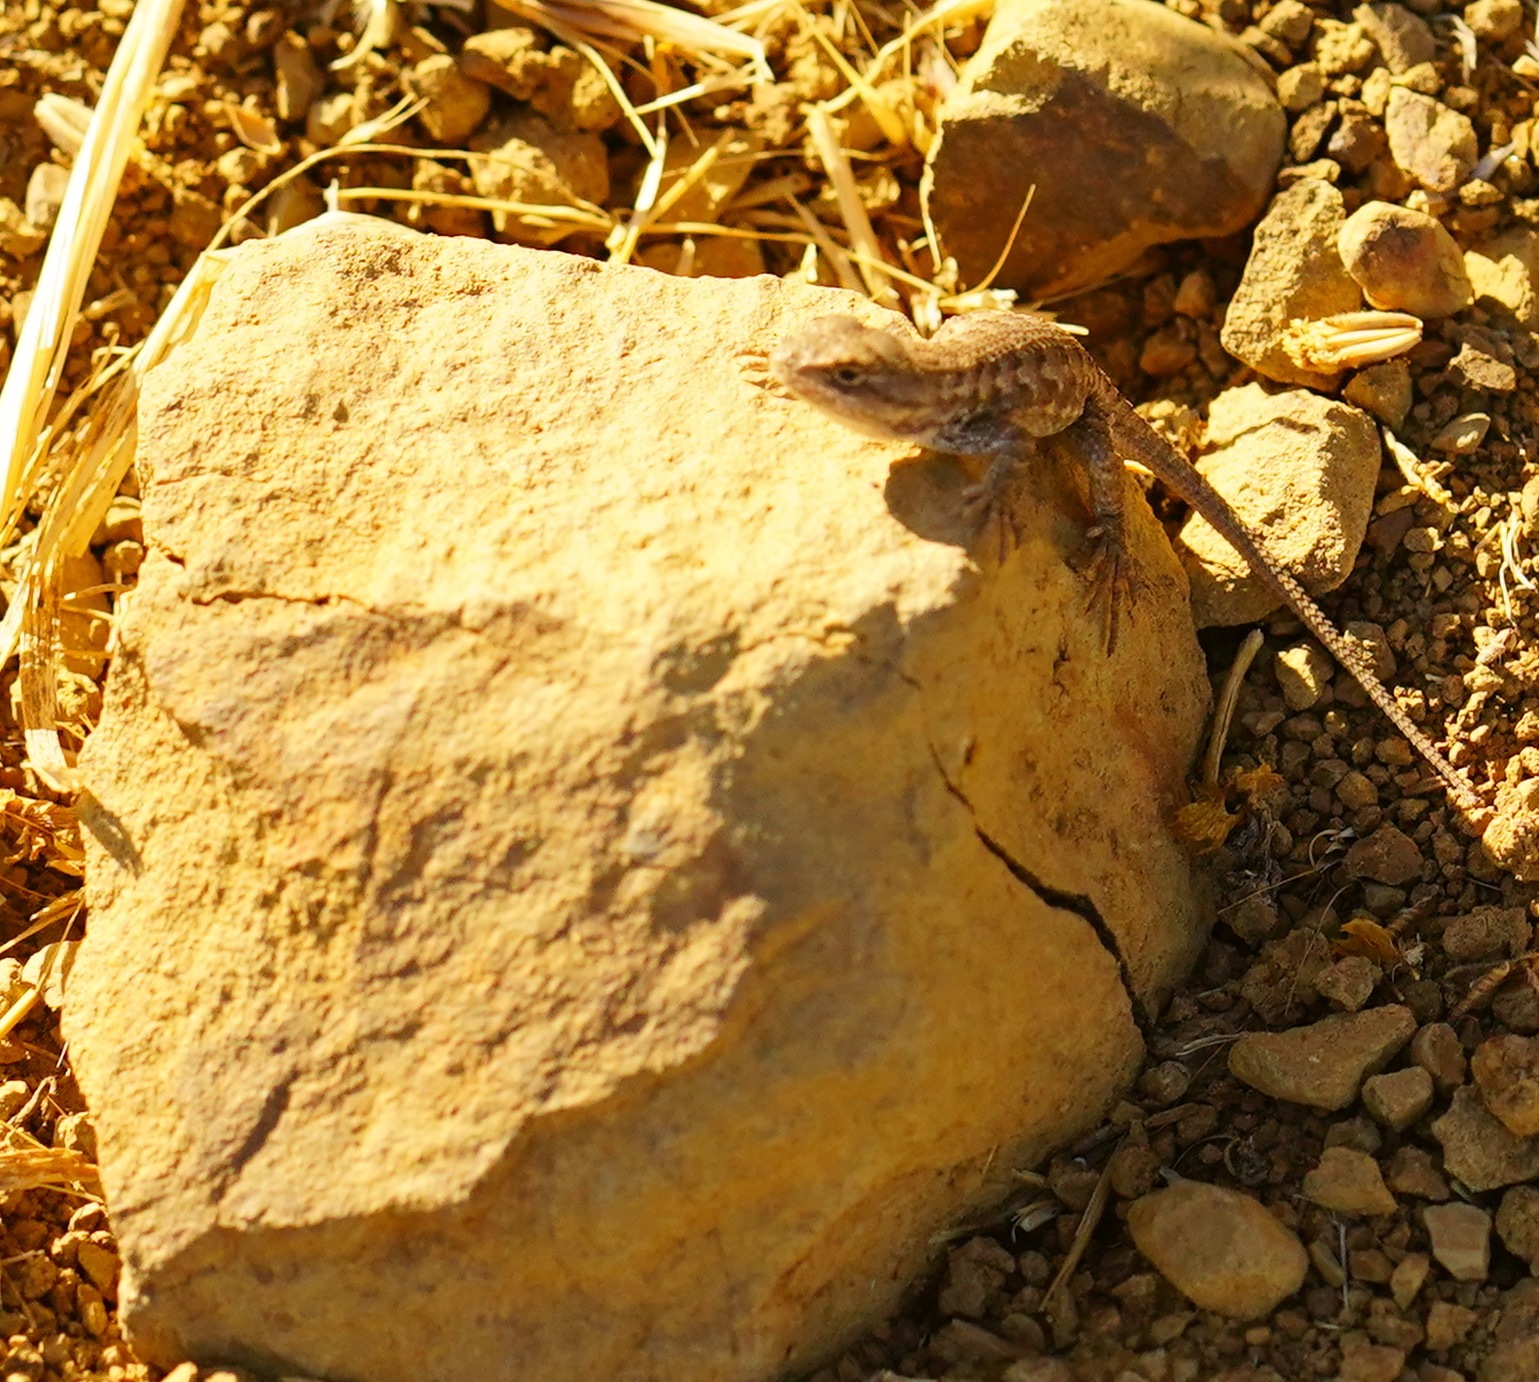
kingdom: Animalia
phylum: Chordata
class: Squamata
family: Phrynosomatidae
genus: Sceloporus
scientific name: Sceloporus occidentalis
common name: Western fence lizard
